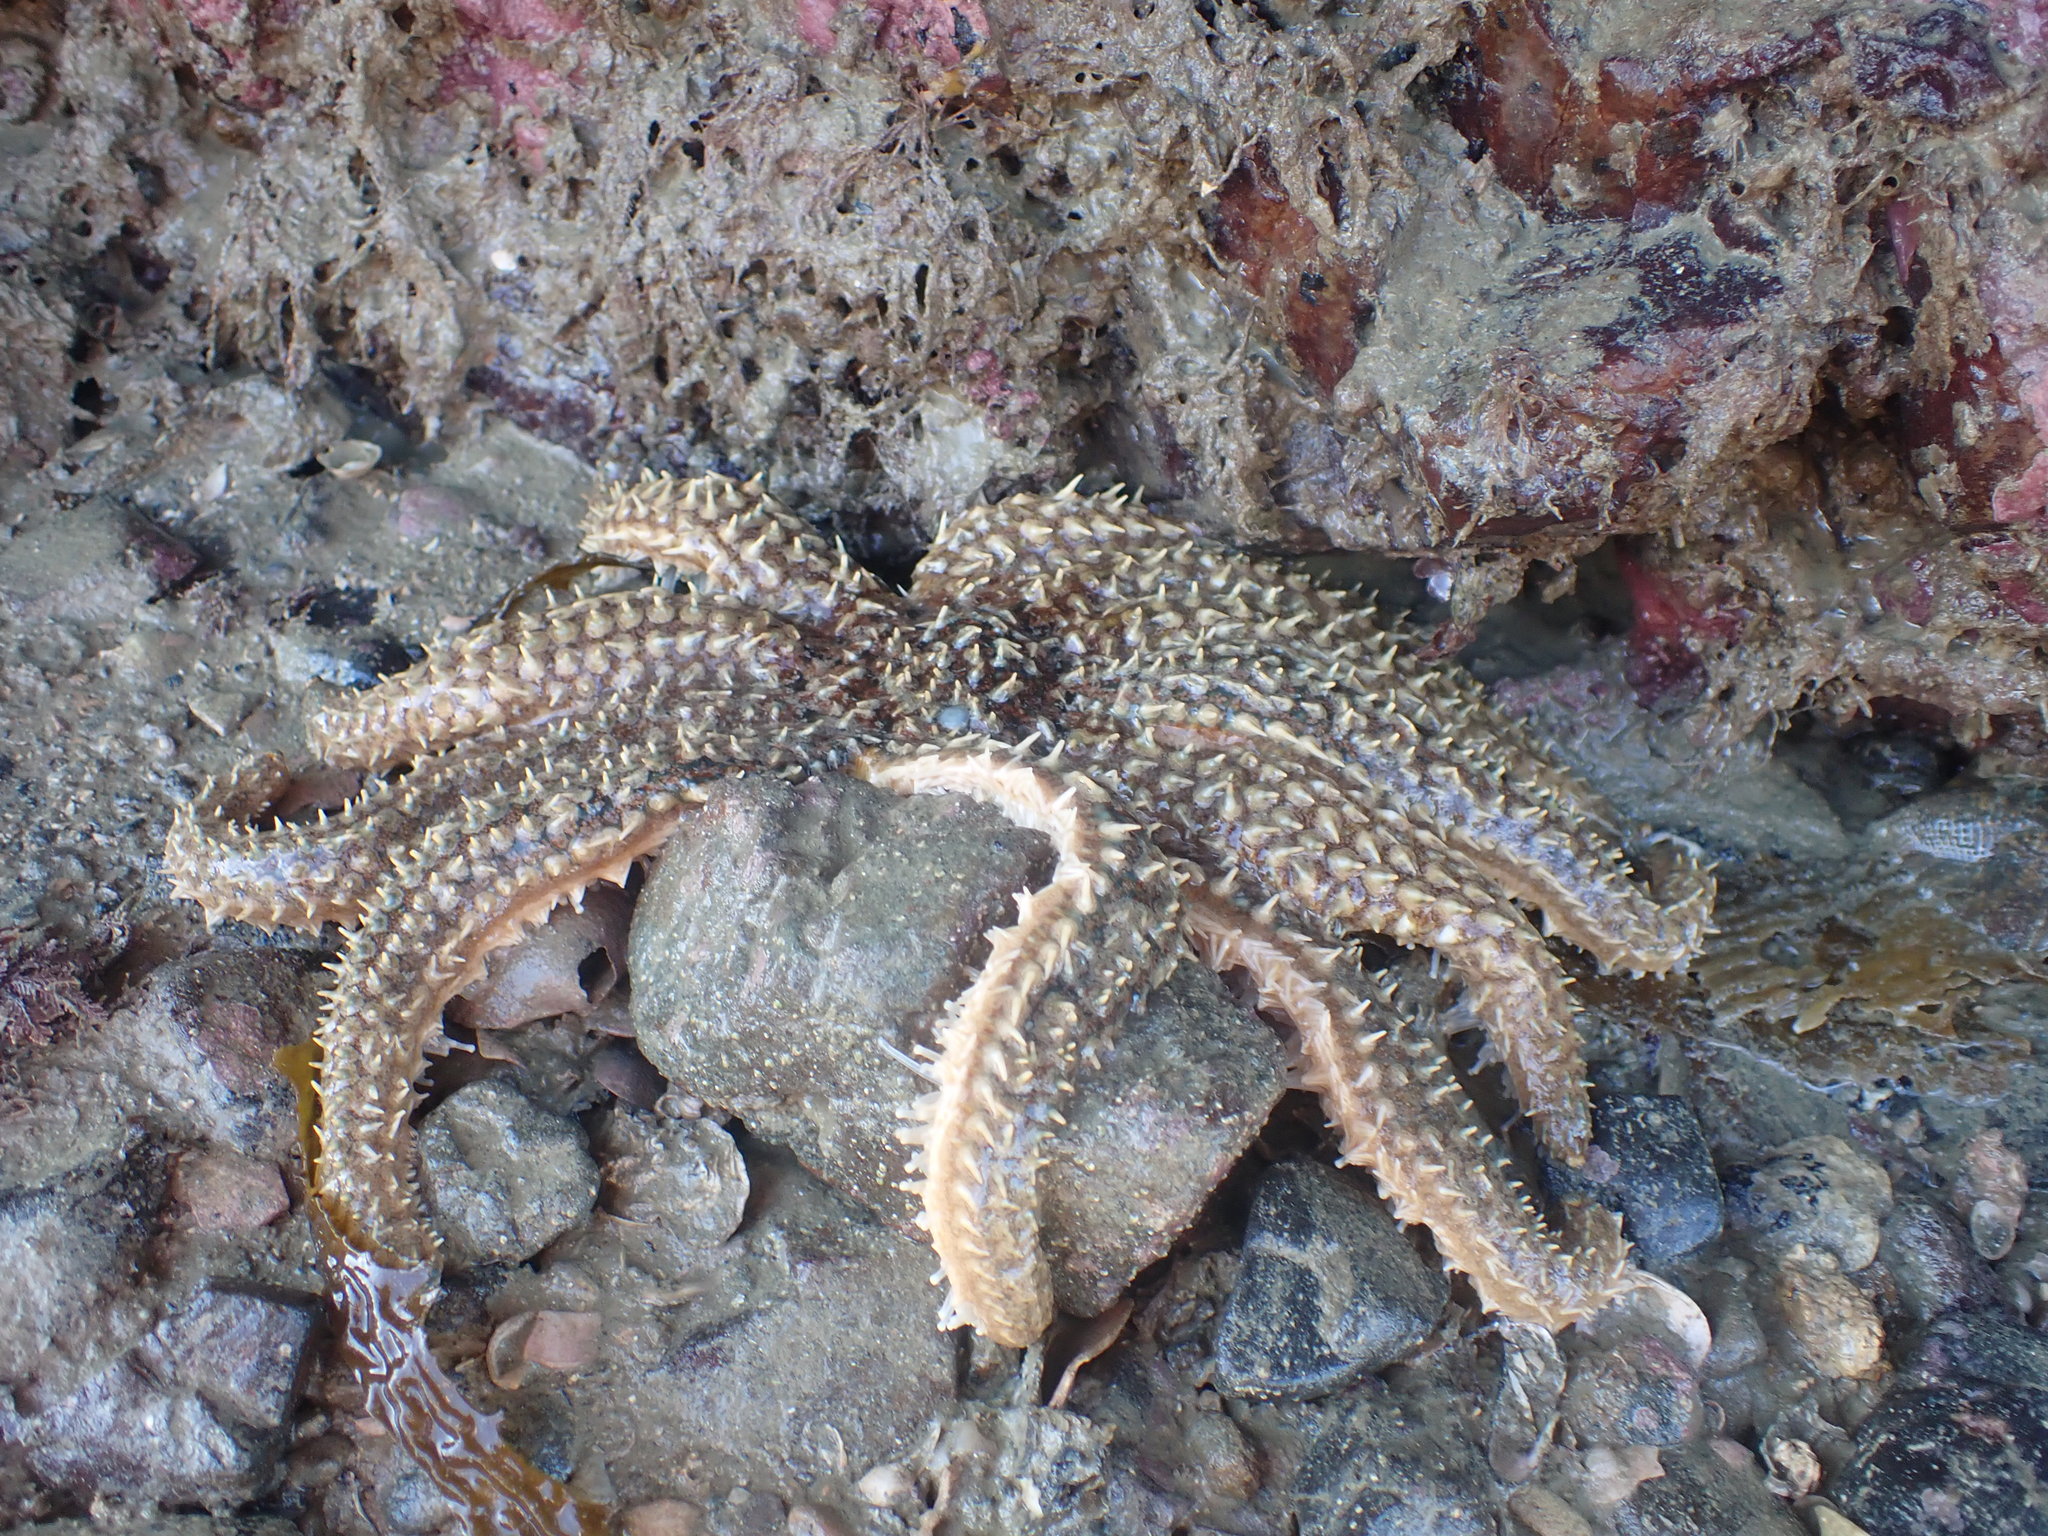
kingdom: Animalia
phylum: Echinodermata
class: Asteroidea
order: Forcipulatida
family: Asteriidae
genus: Coscinasterias
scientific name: Coscinasterias muricata
